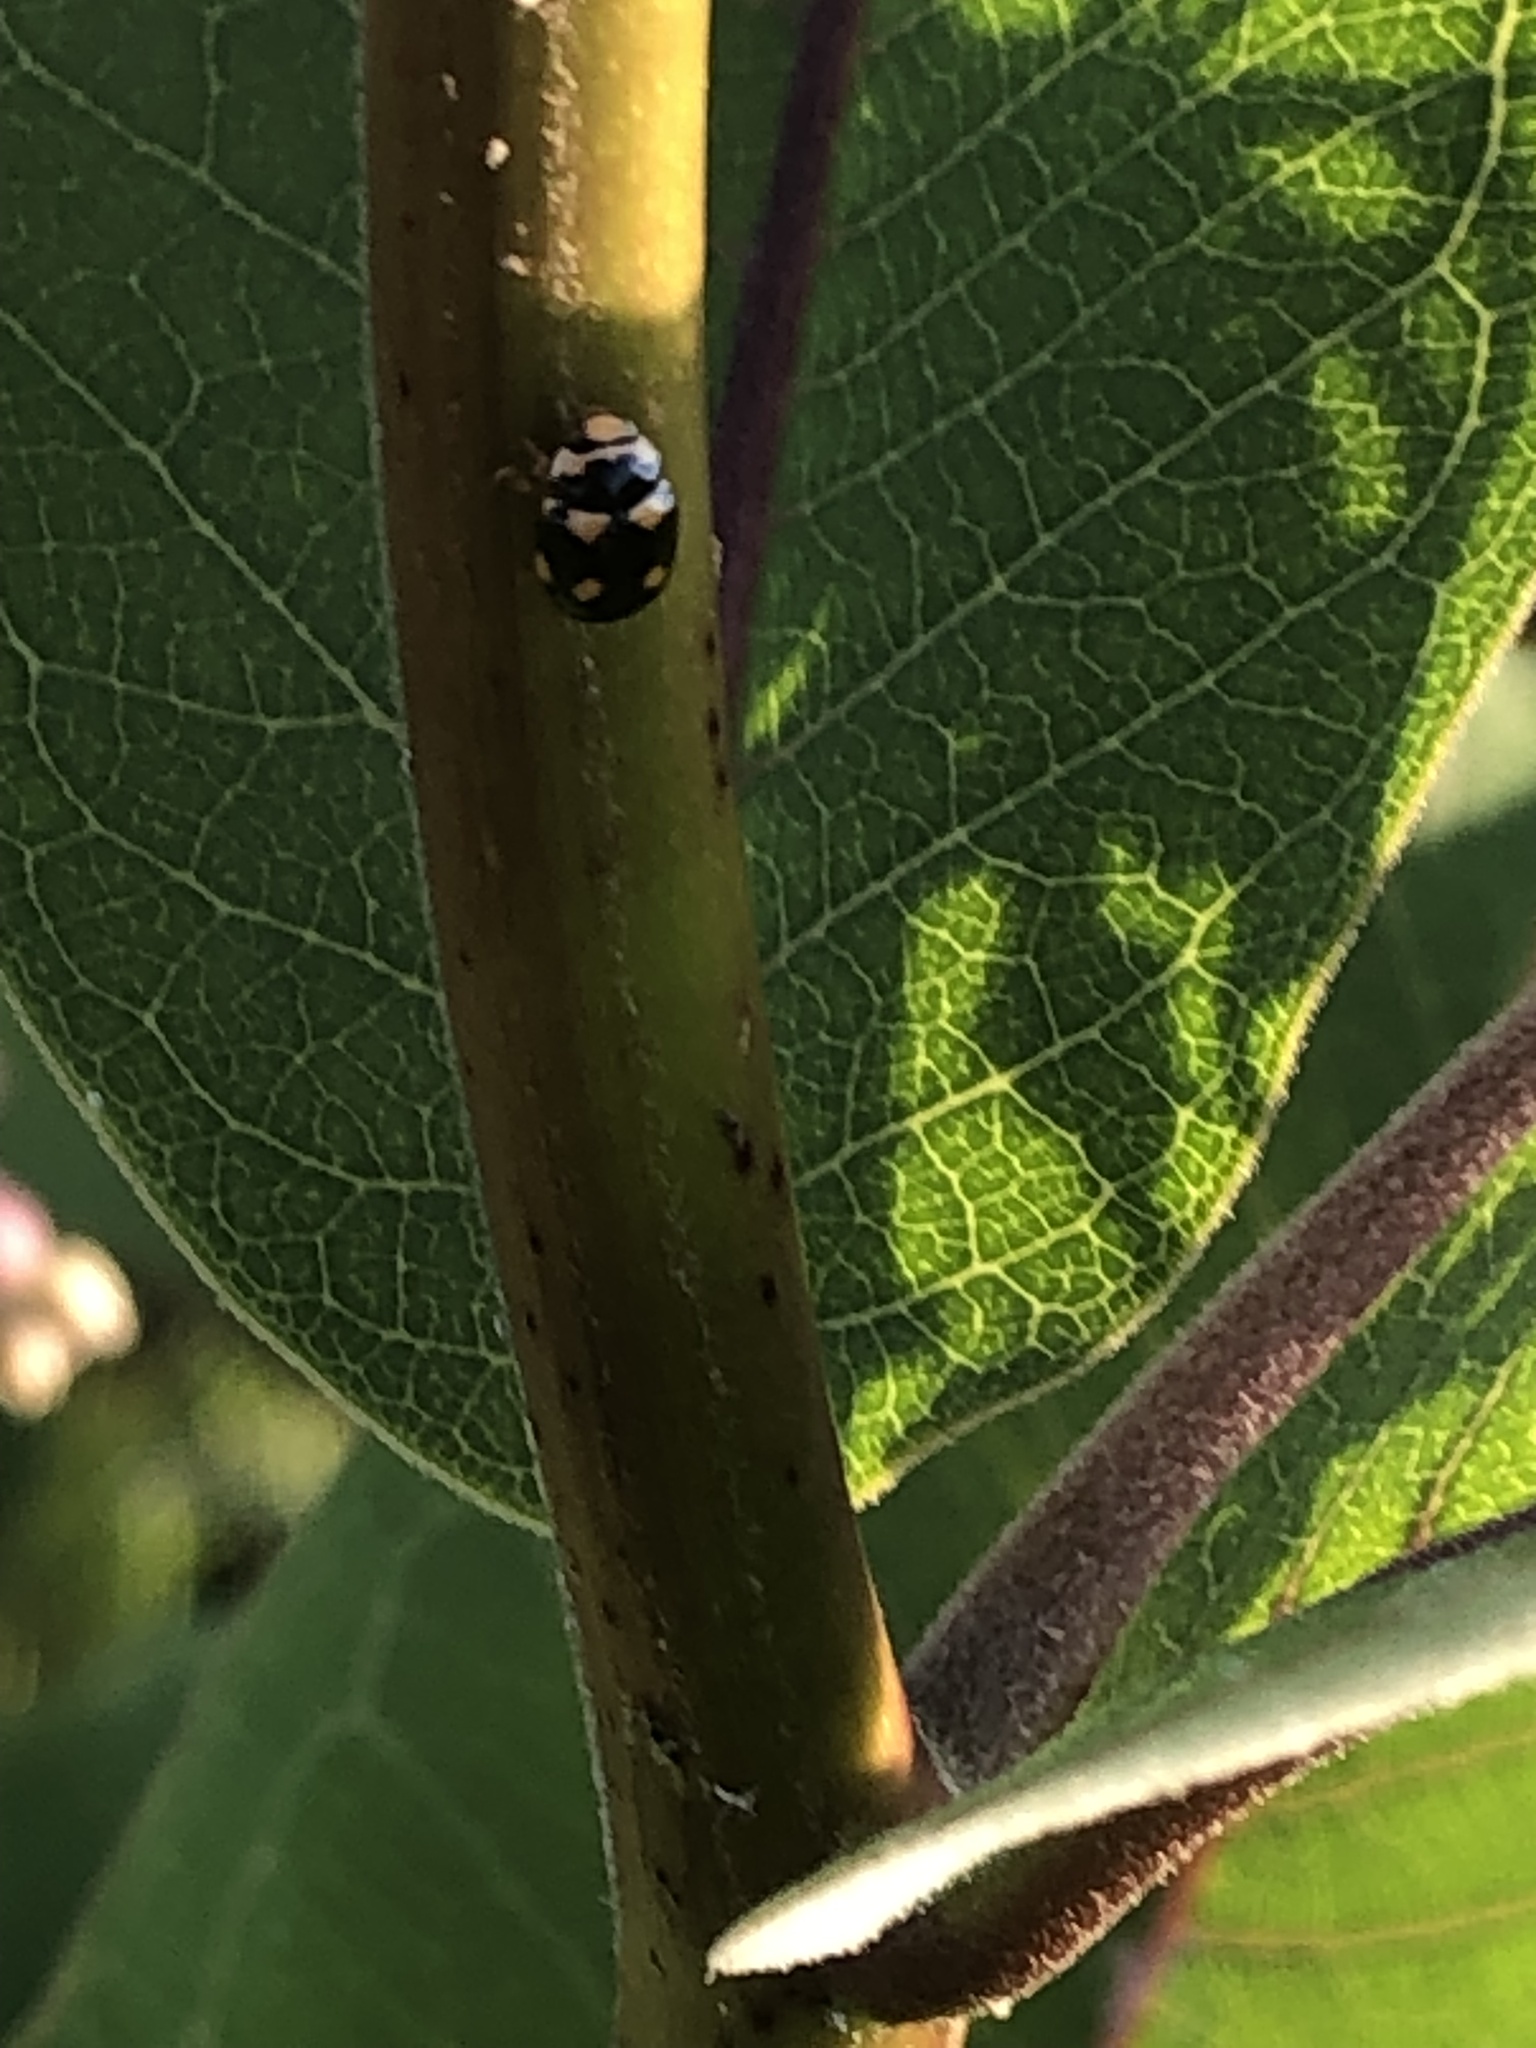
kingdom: Animalia
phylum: Arthropoda
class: Insecta
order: Coleoptera
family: Coccinellidae
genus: Brachiacantha
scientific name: Brachiacantha ursina
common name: Ursine spurleg lady beetle
